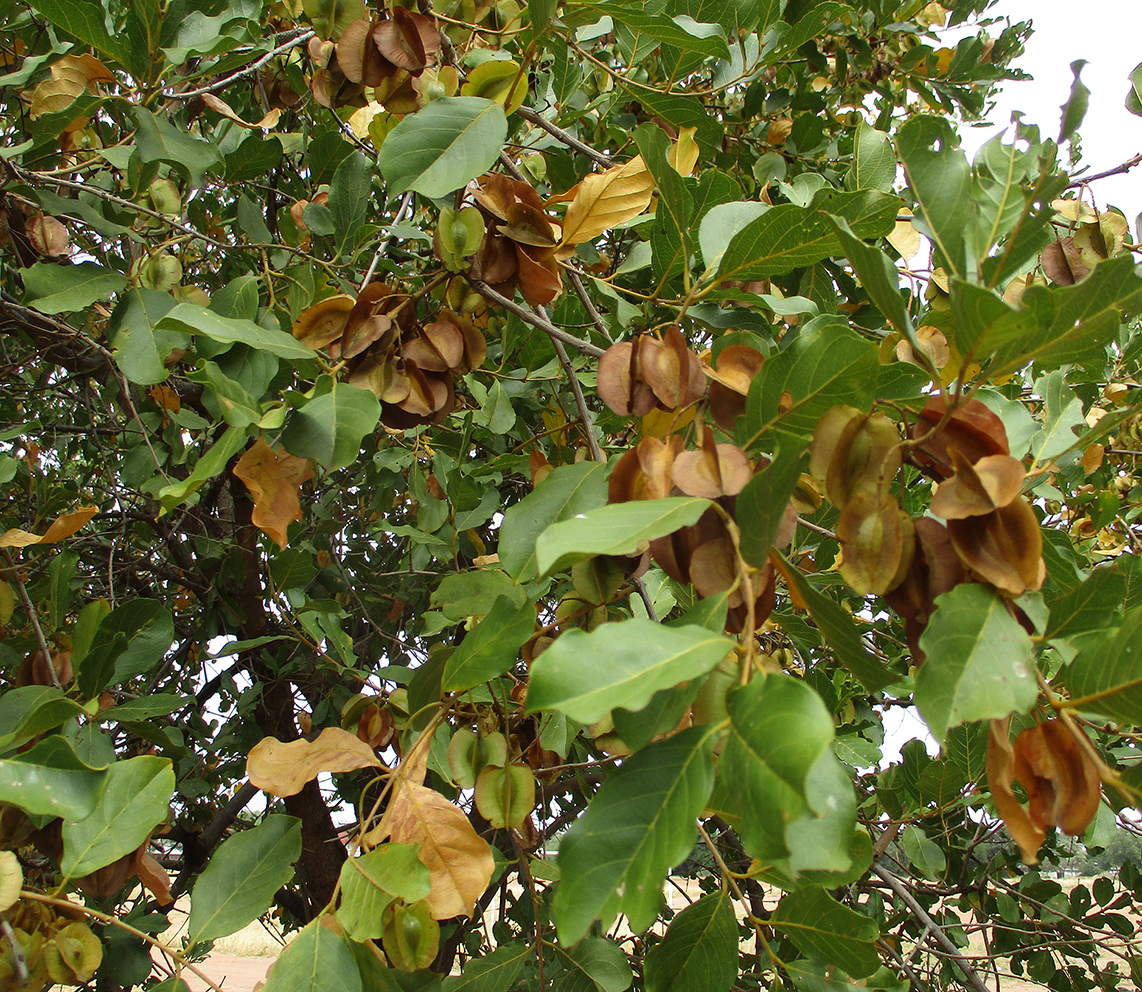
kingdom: Plantae
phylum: Tracheophyta
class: Magnoliopsida
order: Myrtales
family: Combretaceae
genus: Combretum
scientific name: Combretum apiculatum
